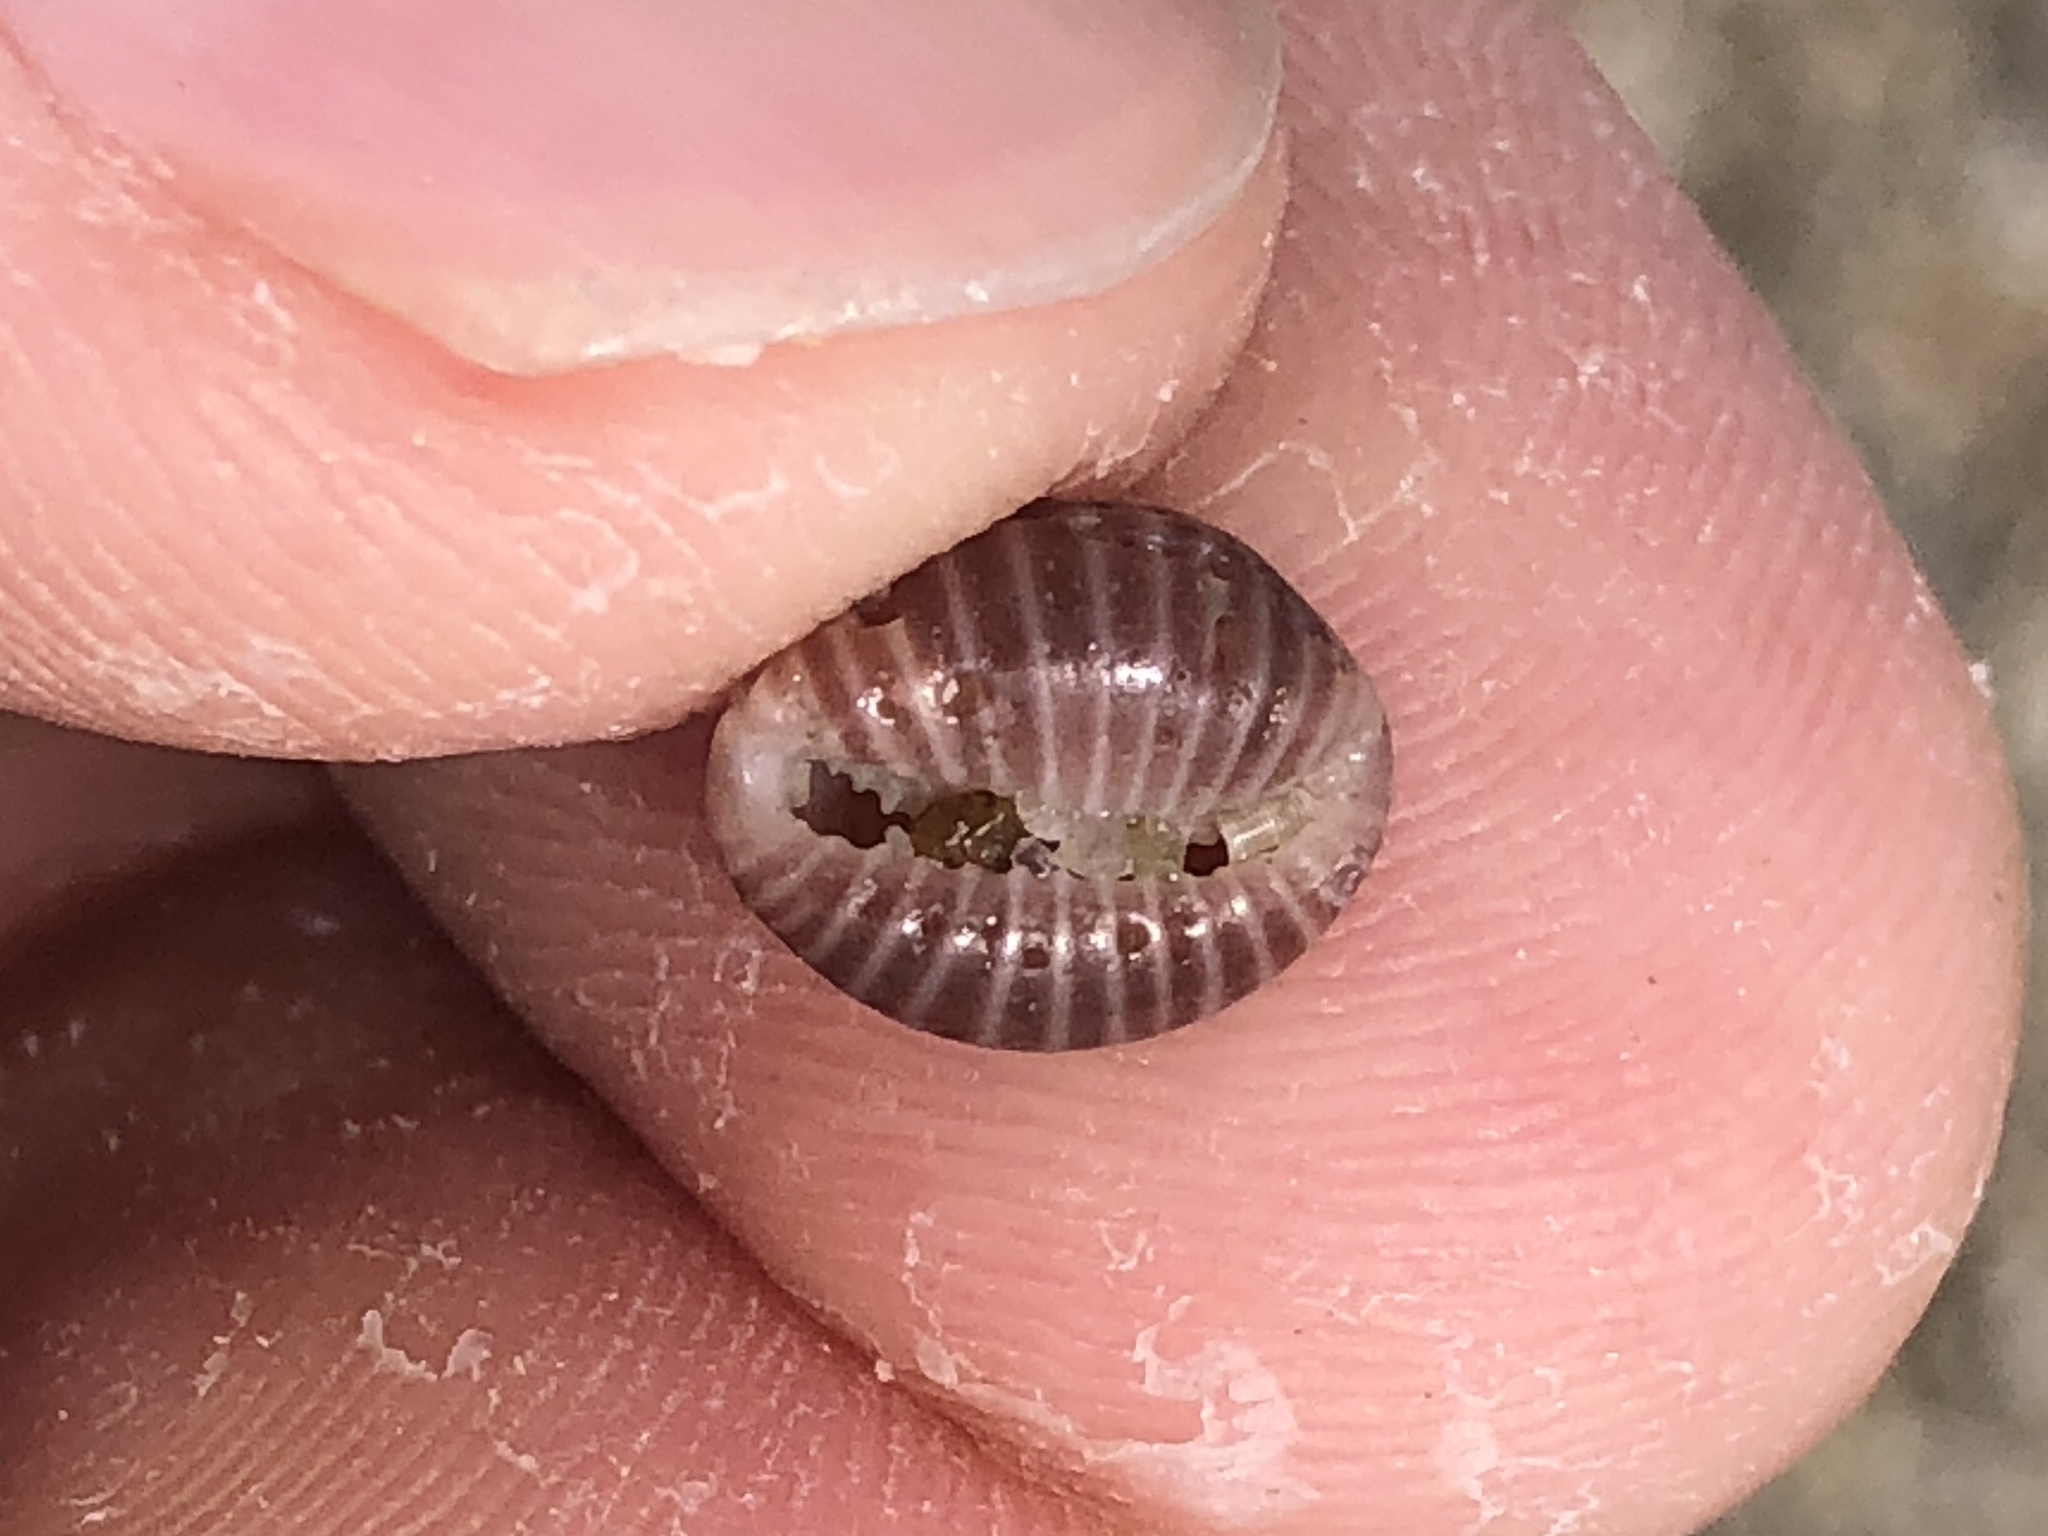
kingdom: Animalia
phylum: Mollusca
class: Gastropoda
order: Littorinimorpha
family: Triviidae
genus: Pseudopusula
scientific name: Pseudopusula californiana
